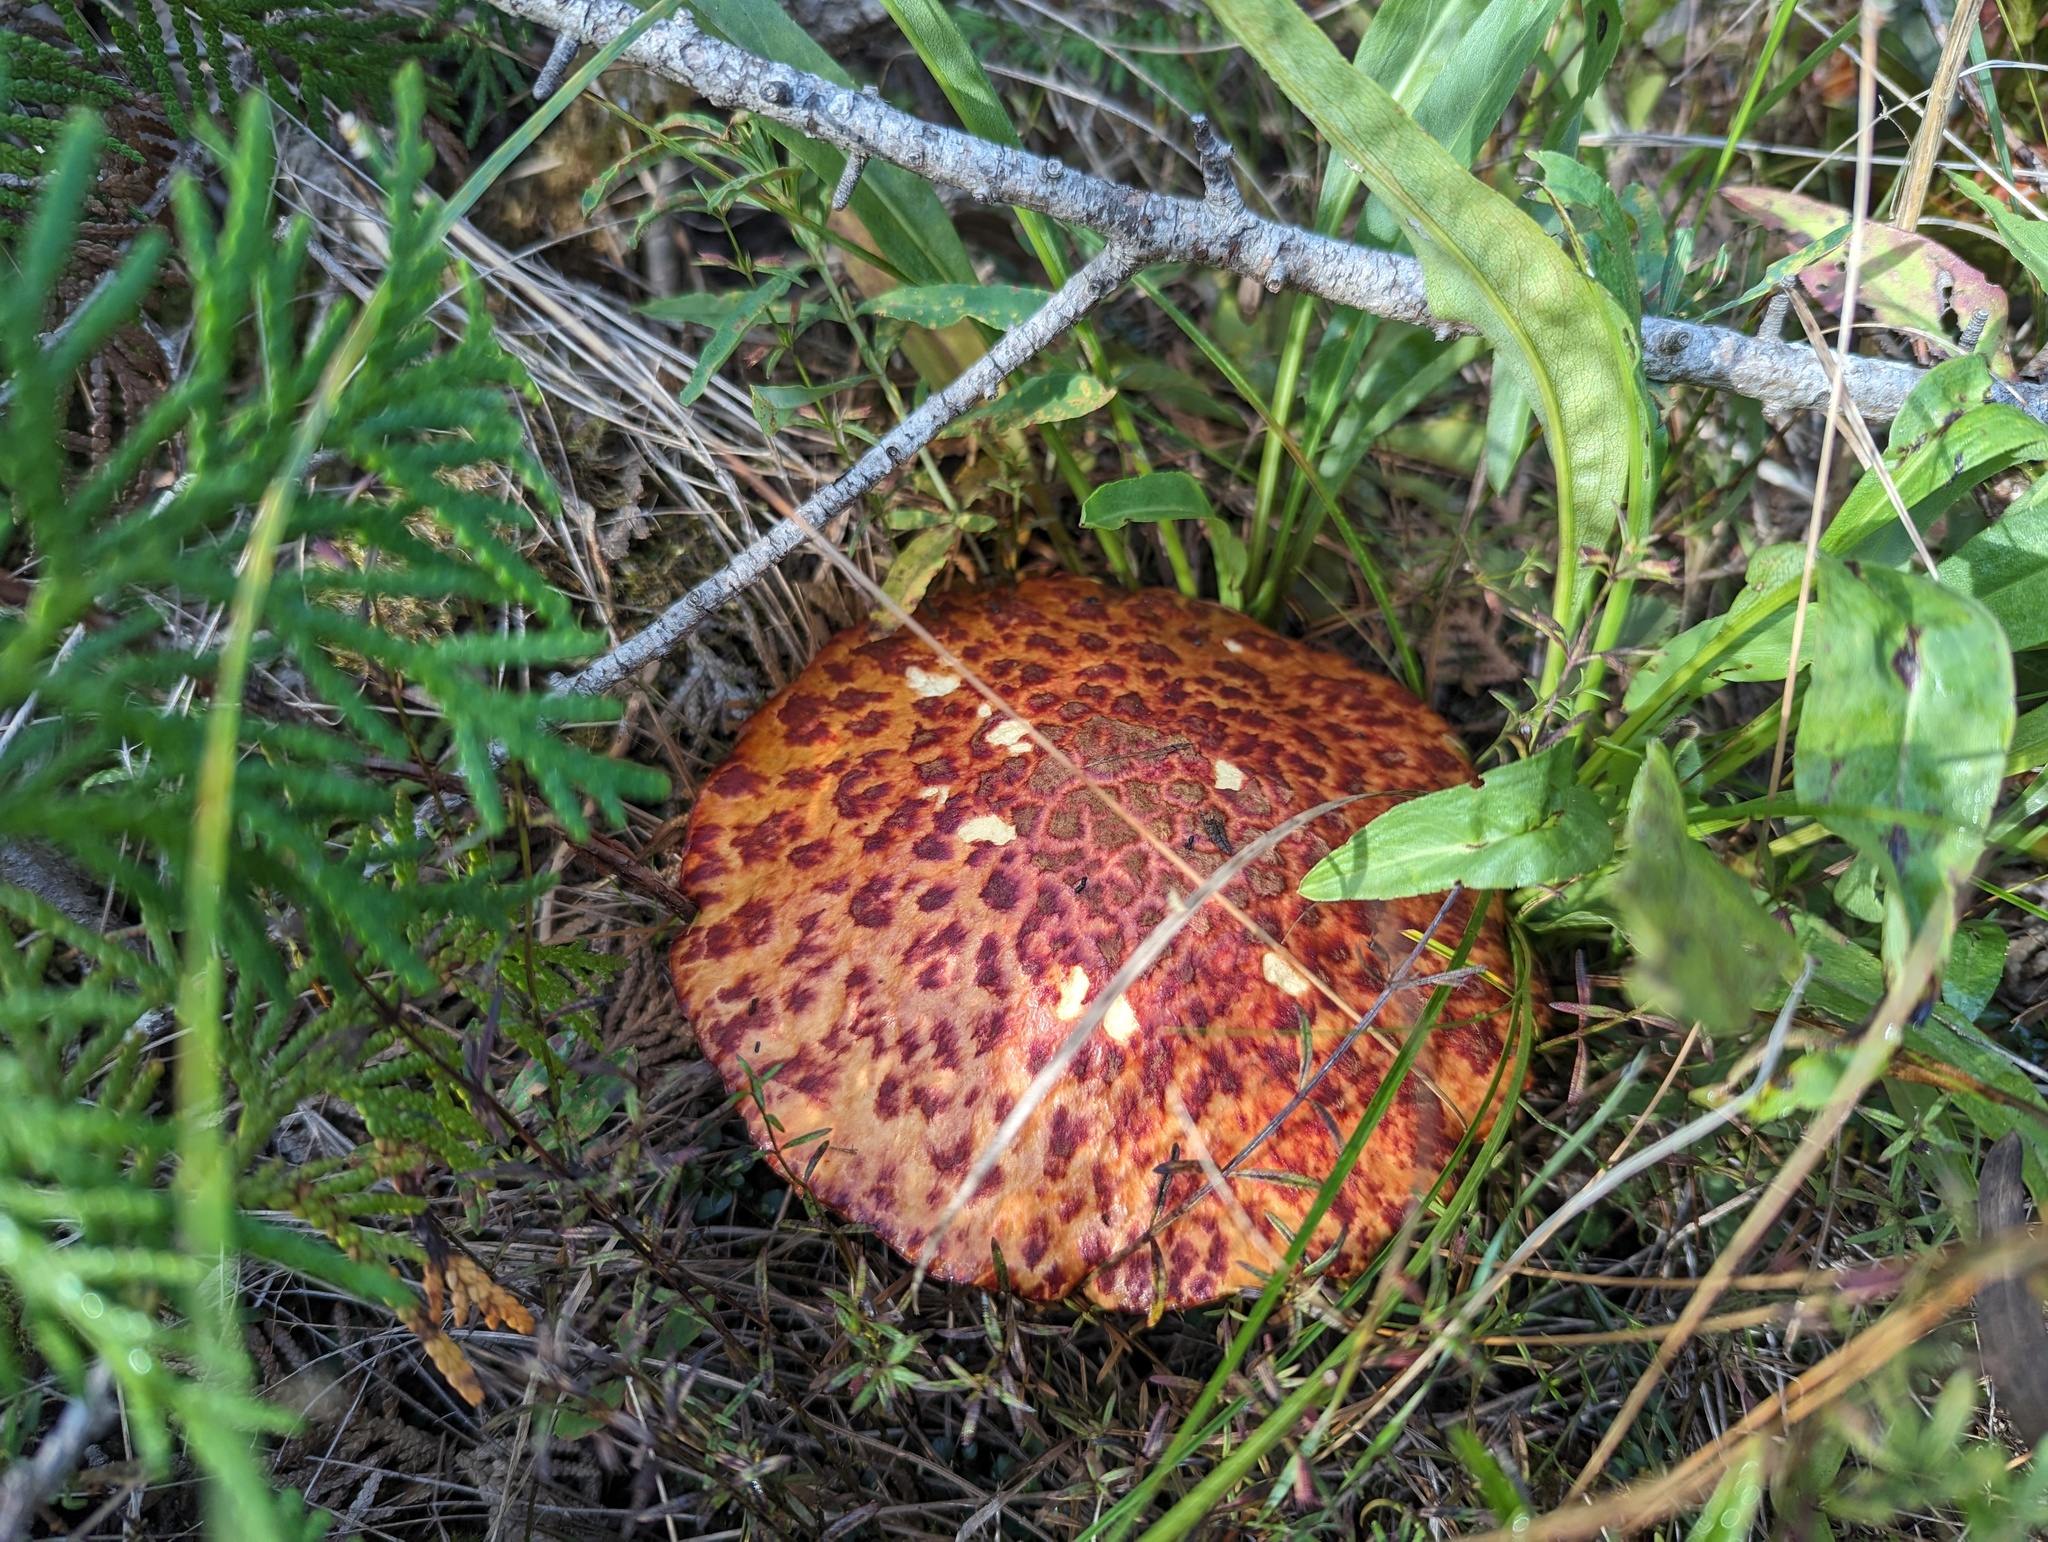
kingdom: Fungi
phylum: Basidiomycota
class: Agaricomycetes
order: Boletales
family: Suillaceae
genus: Boletinus
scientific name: Boletinus spectabilis
